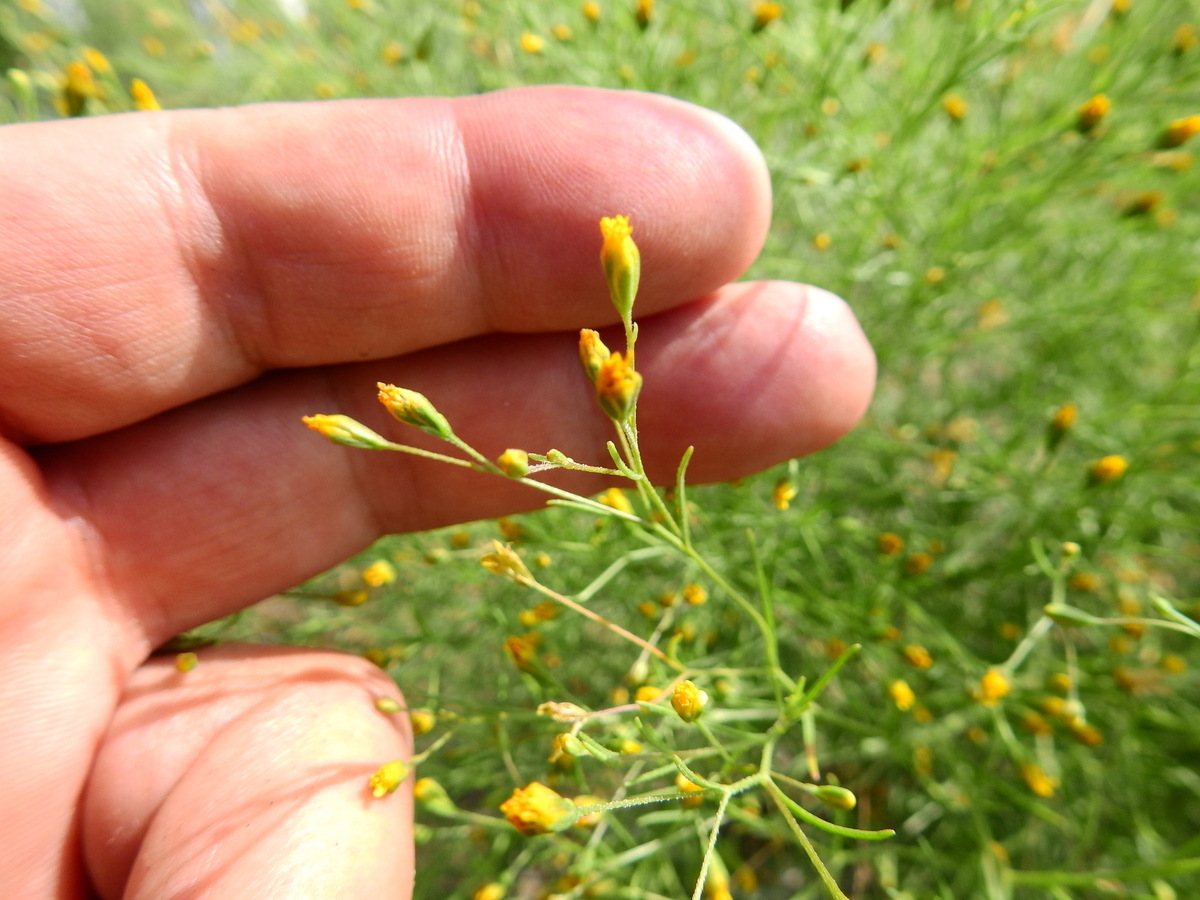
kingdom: Plantae
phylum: Tracheophyta
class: Magnoliopsida
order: Asterales
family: Asteraceae
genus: Schkuhria
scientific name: Schkuhria pinnata
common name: Dwarf marigold
